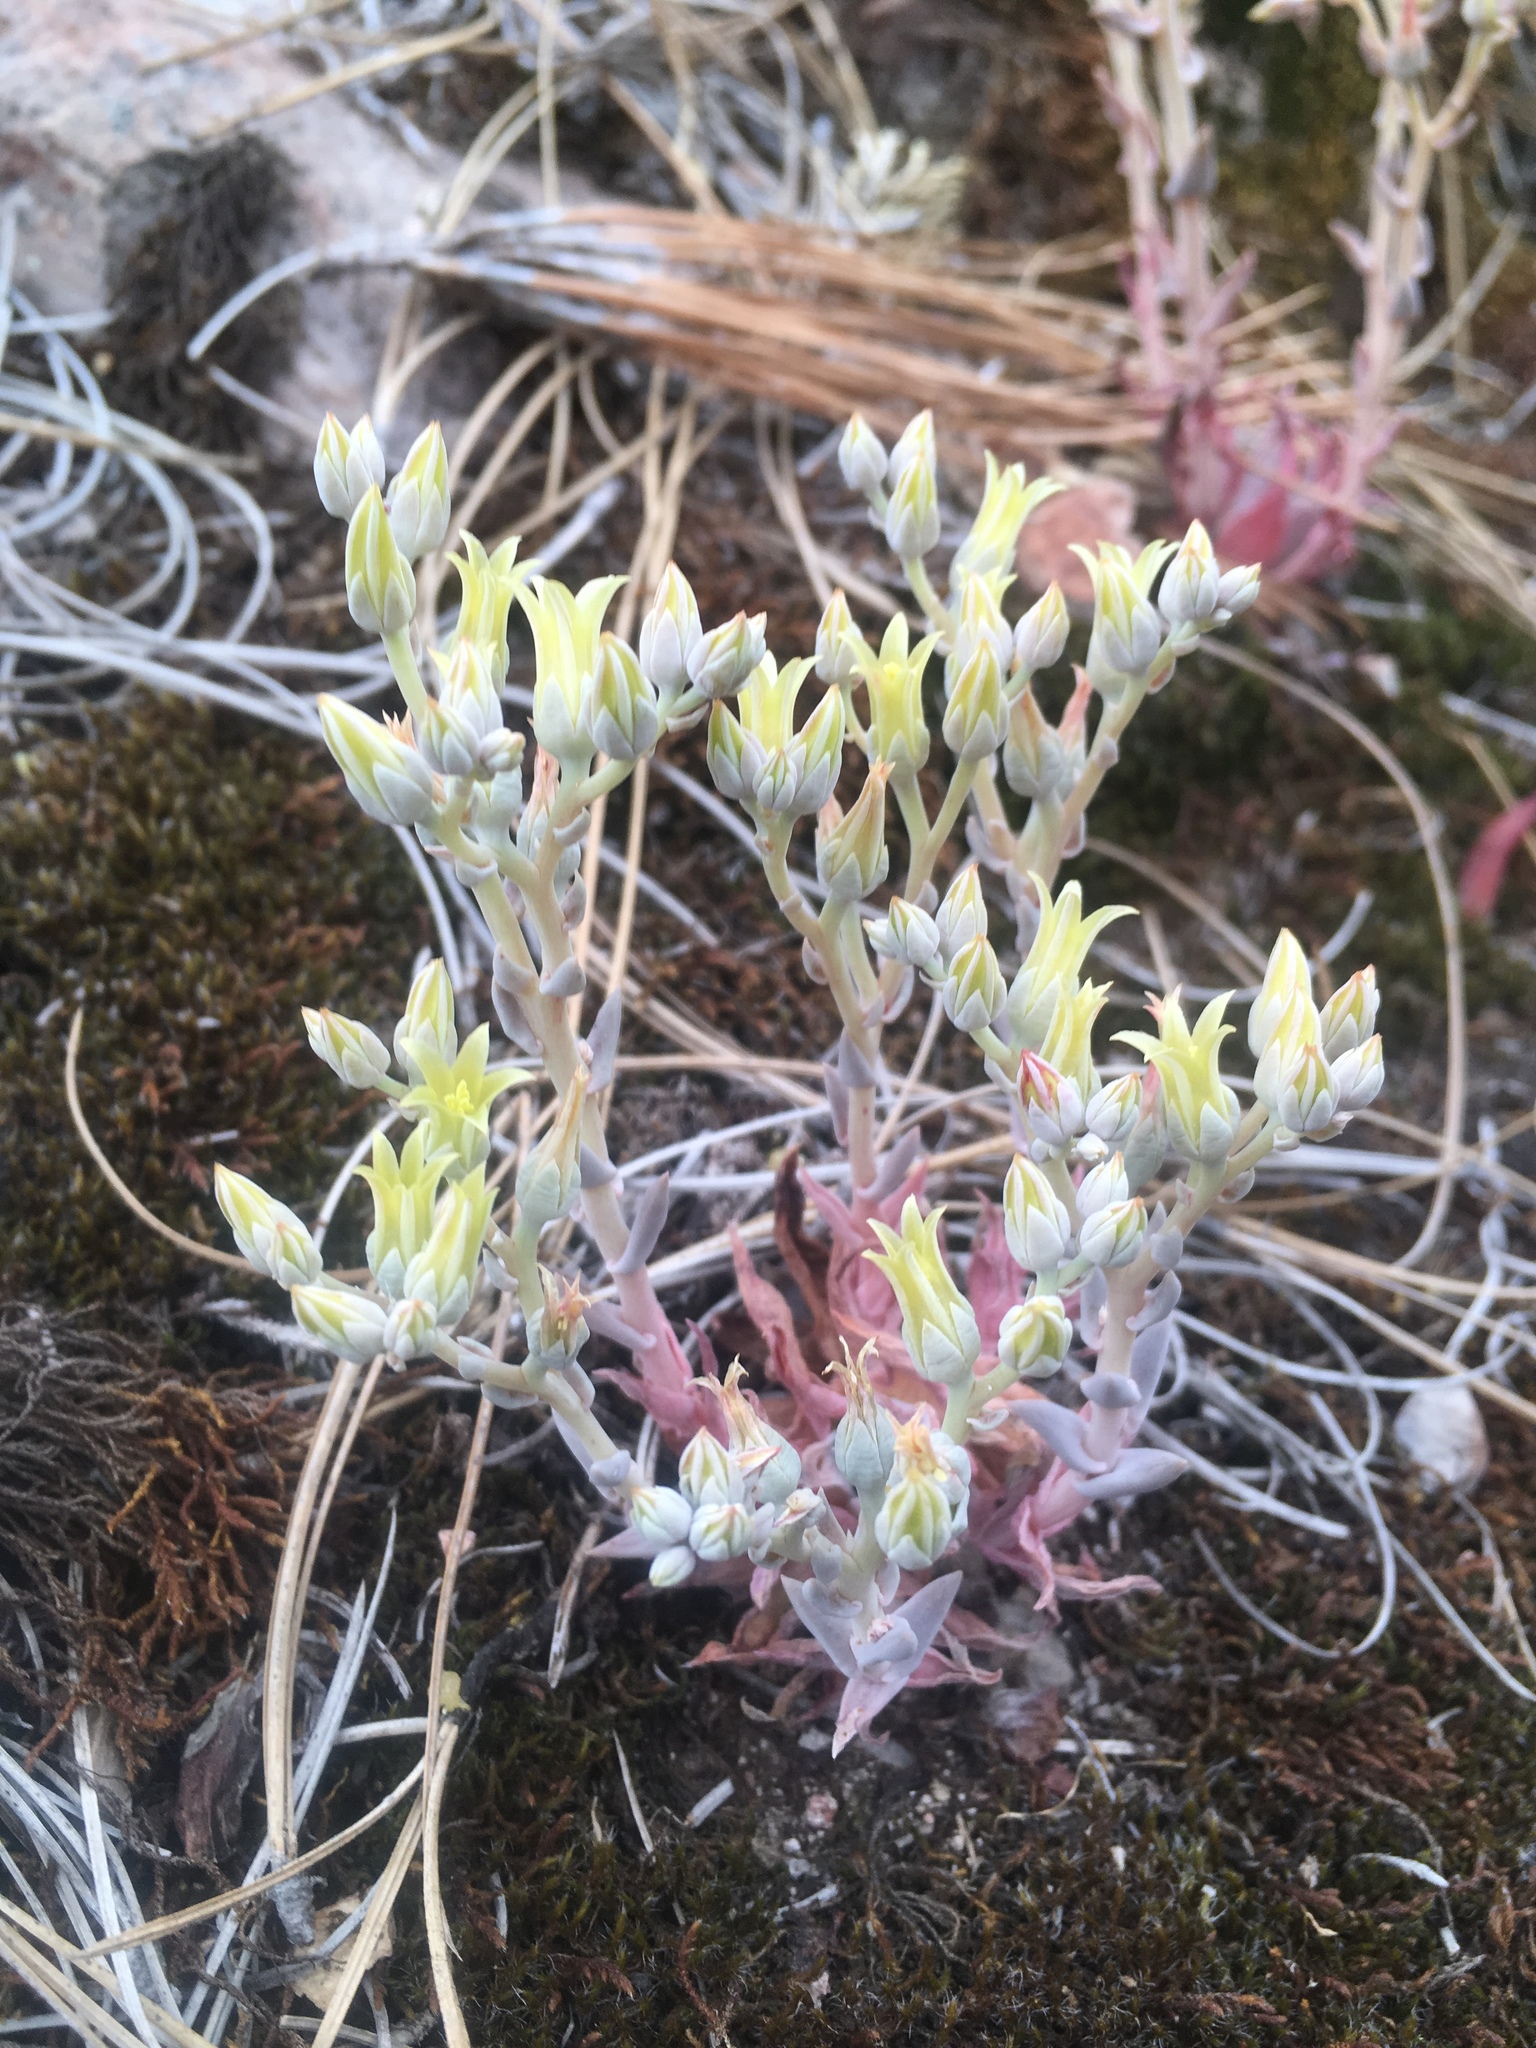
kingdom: Plantae
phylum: Tracheophyta
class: Magnoliopsida
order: Saxifragales
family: Crassulaceae
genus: Dudleya
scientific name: Dudleya cymosa
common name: Canyon dudleya
